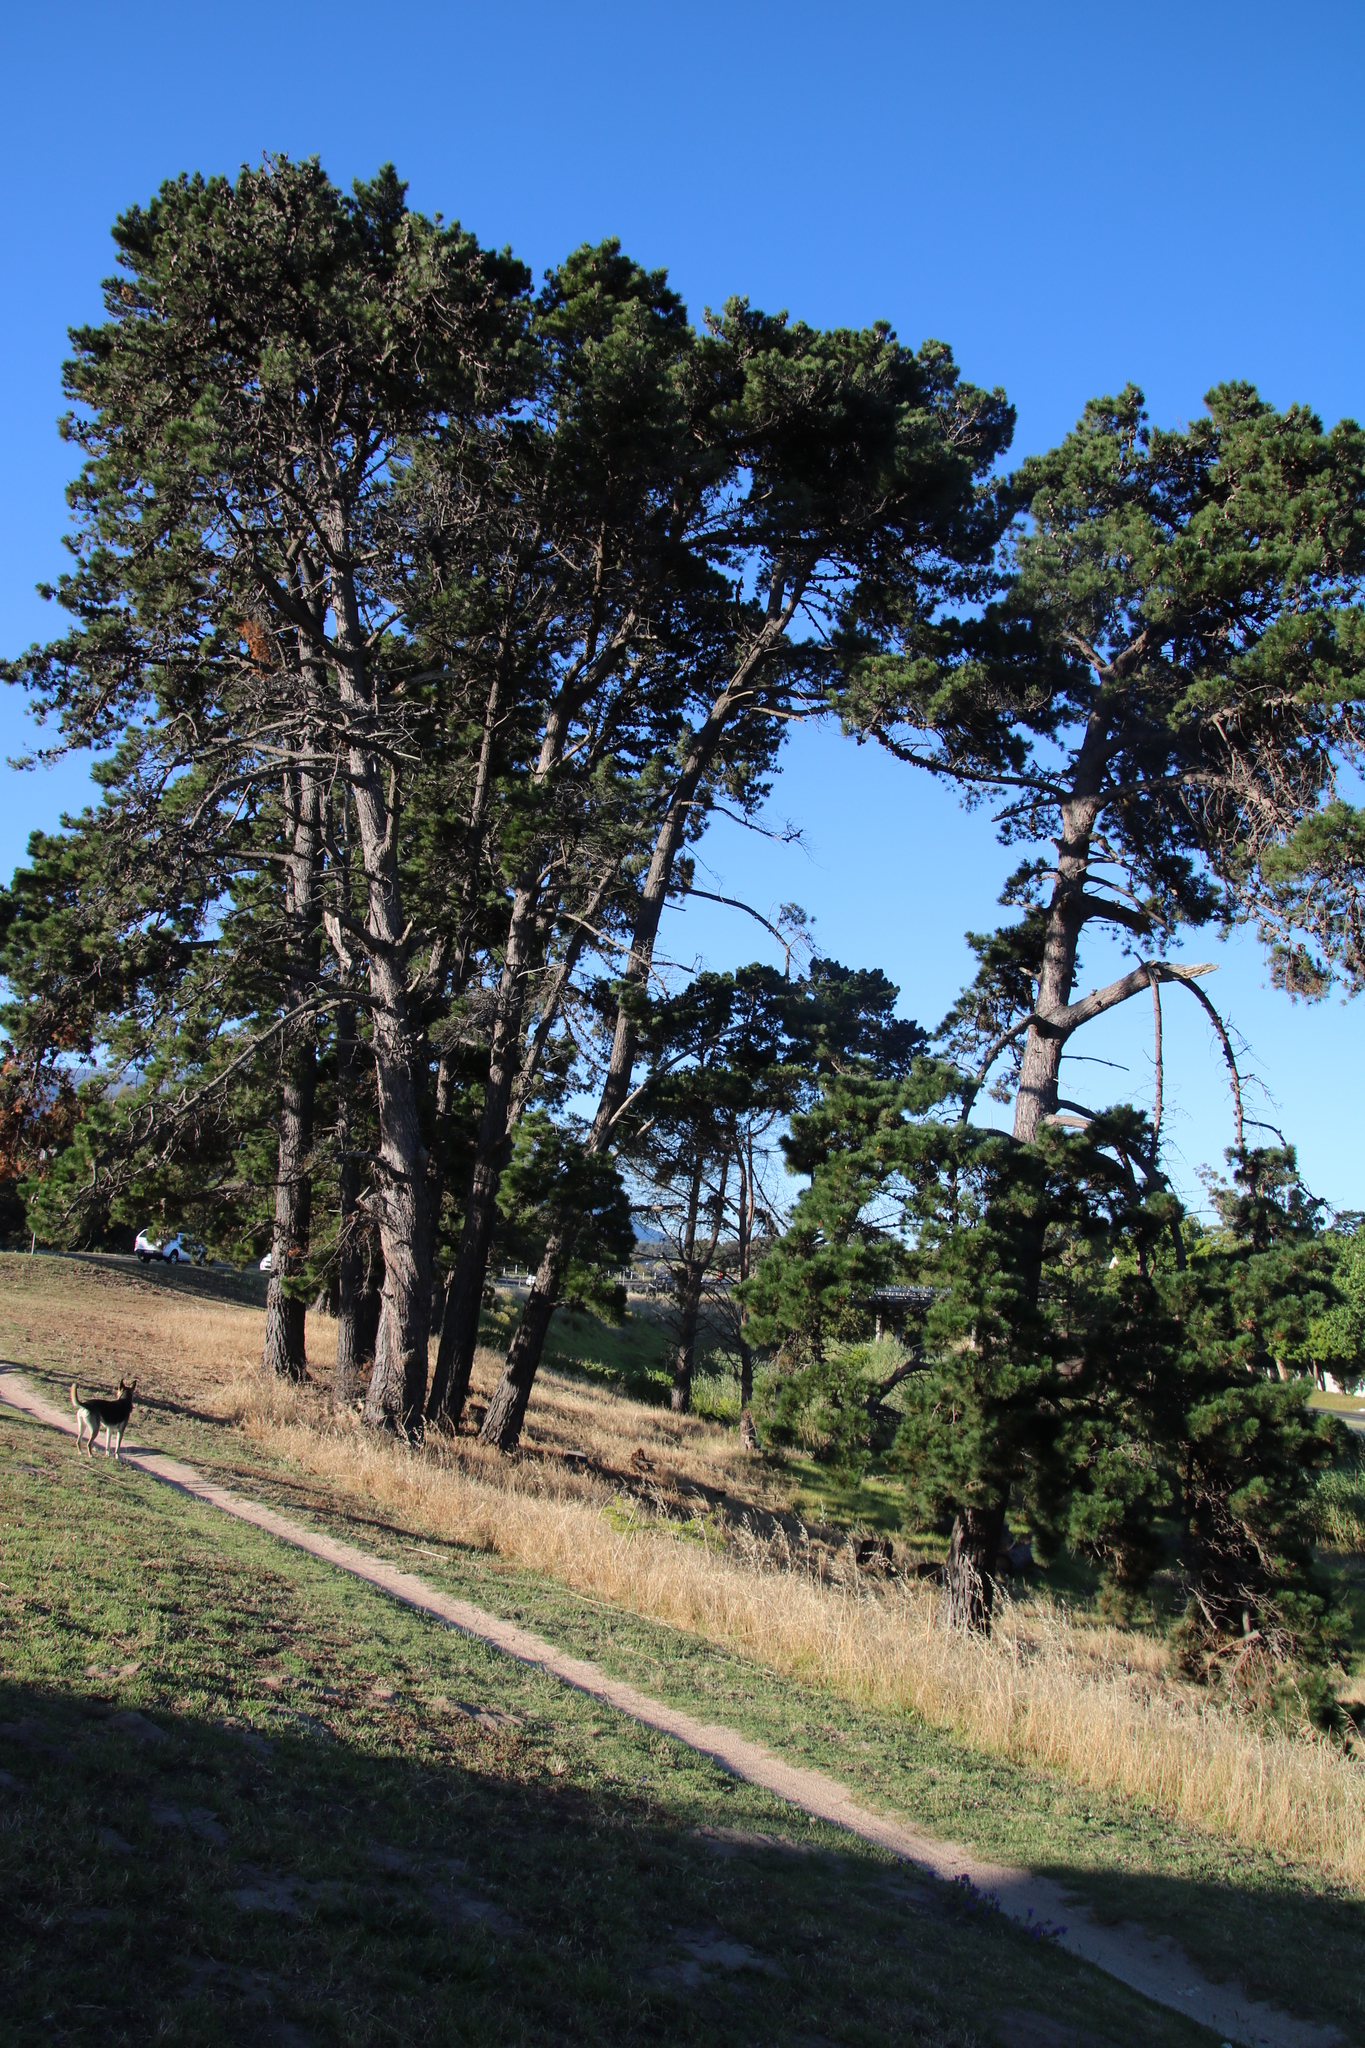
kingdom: Plantae
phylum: Tracheophyta
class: Pinopsida
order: Pinales
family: Pinaceae
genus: Pinus
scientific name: Pinus radiata
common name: Monterey pine
